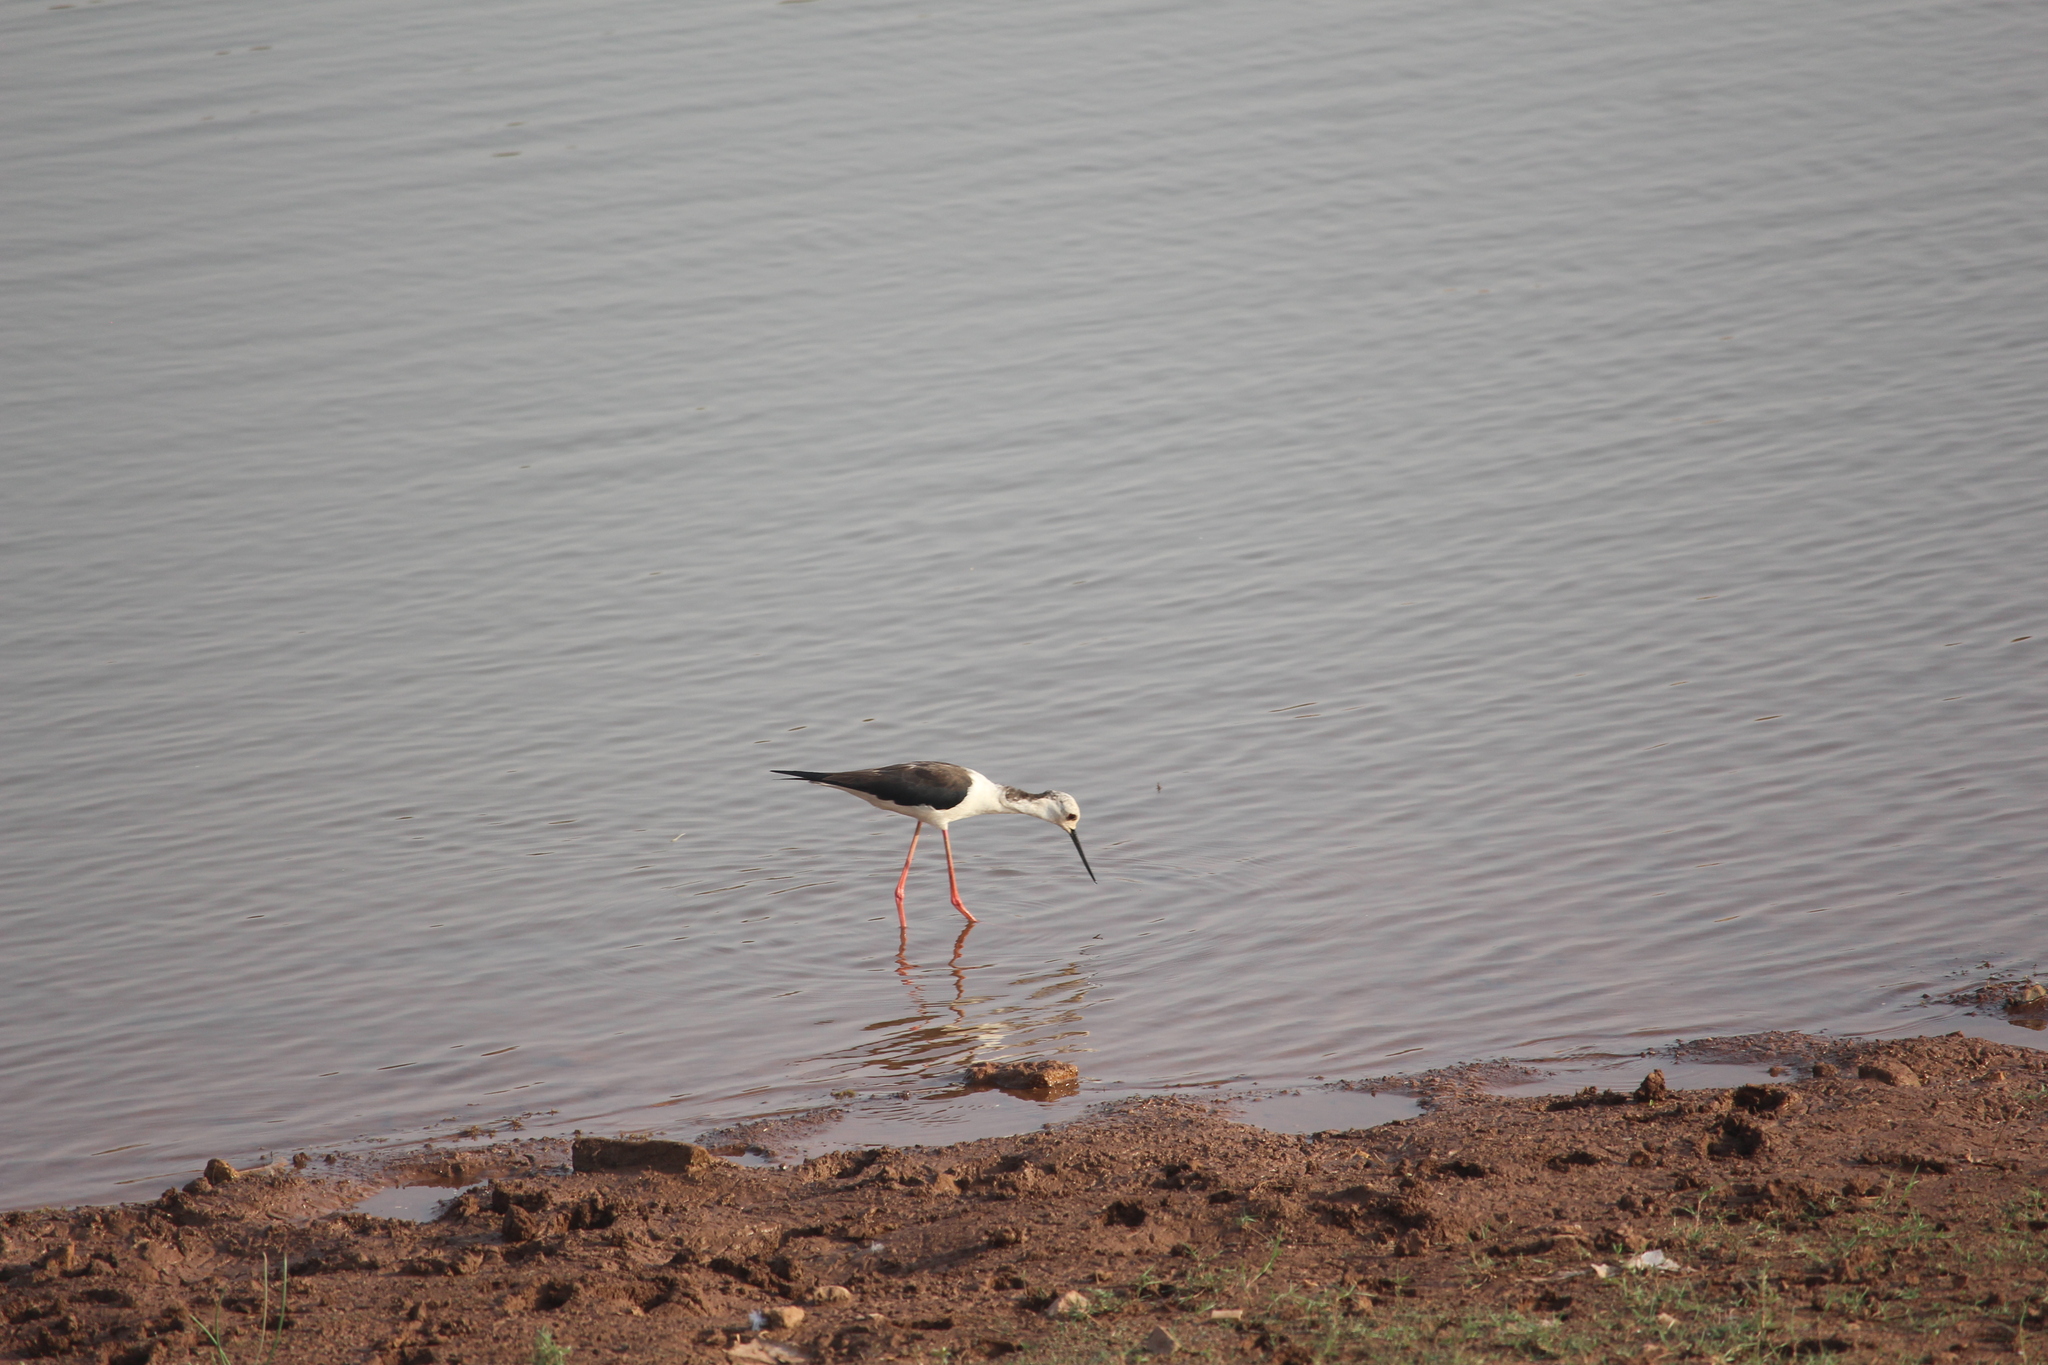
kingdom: Animalia
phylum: Chordata
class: Aves
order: Charadriiformes
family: Recurvirostridae
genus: Himantopus
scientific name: Himantopus himantopus
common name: Black-winged stilt
